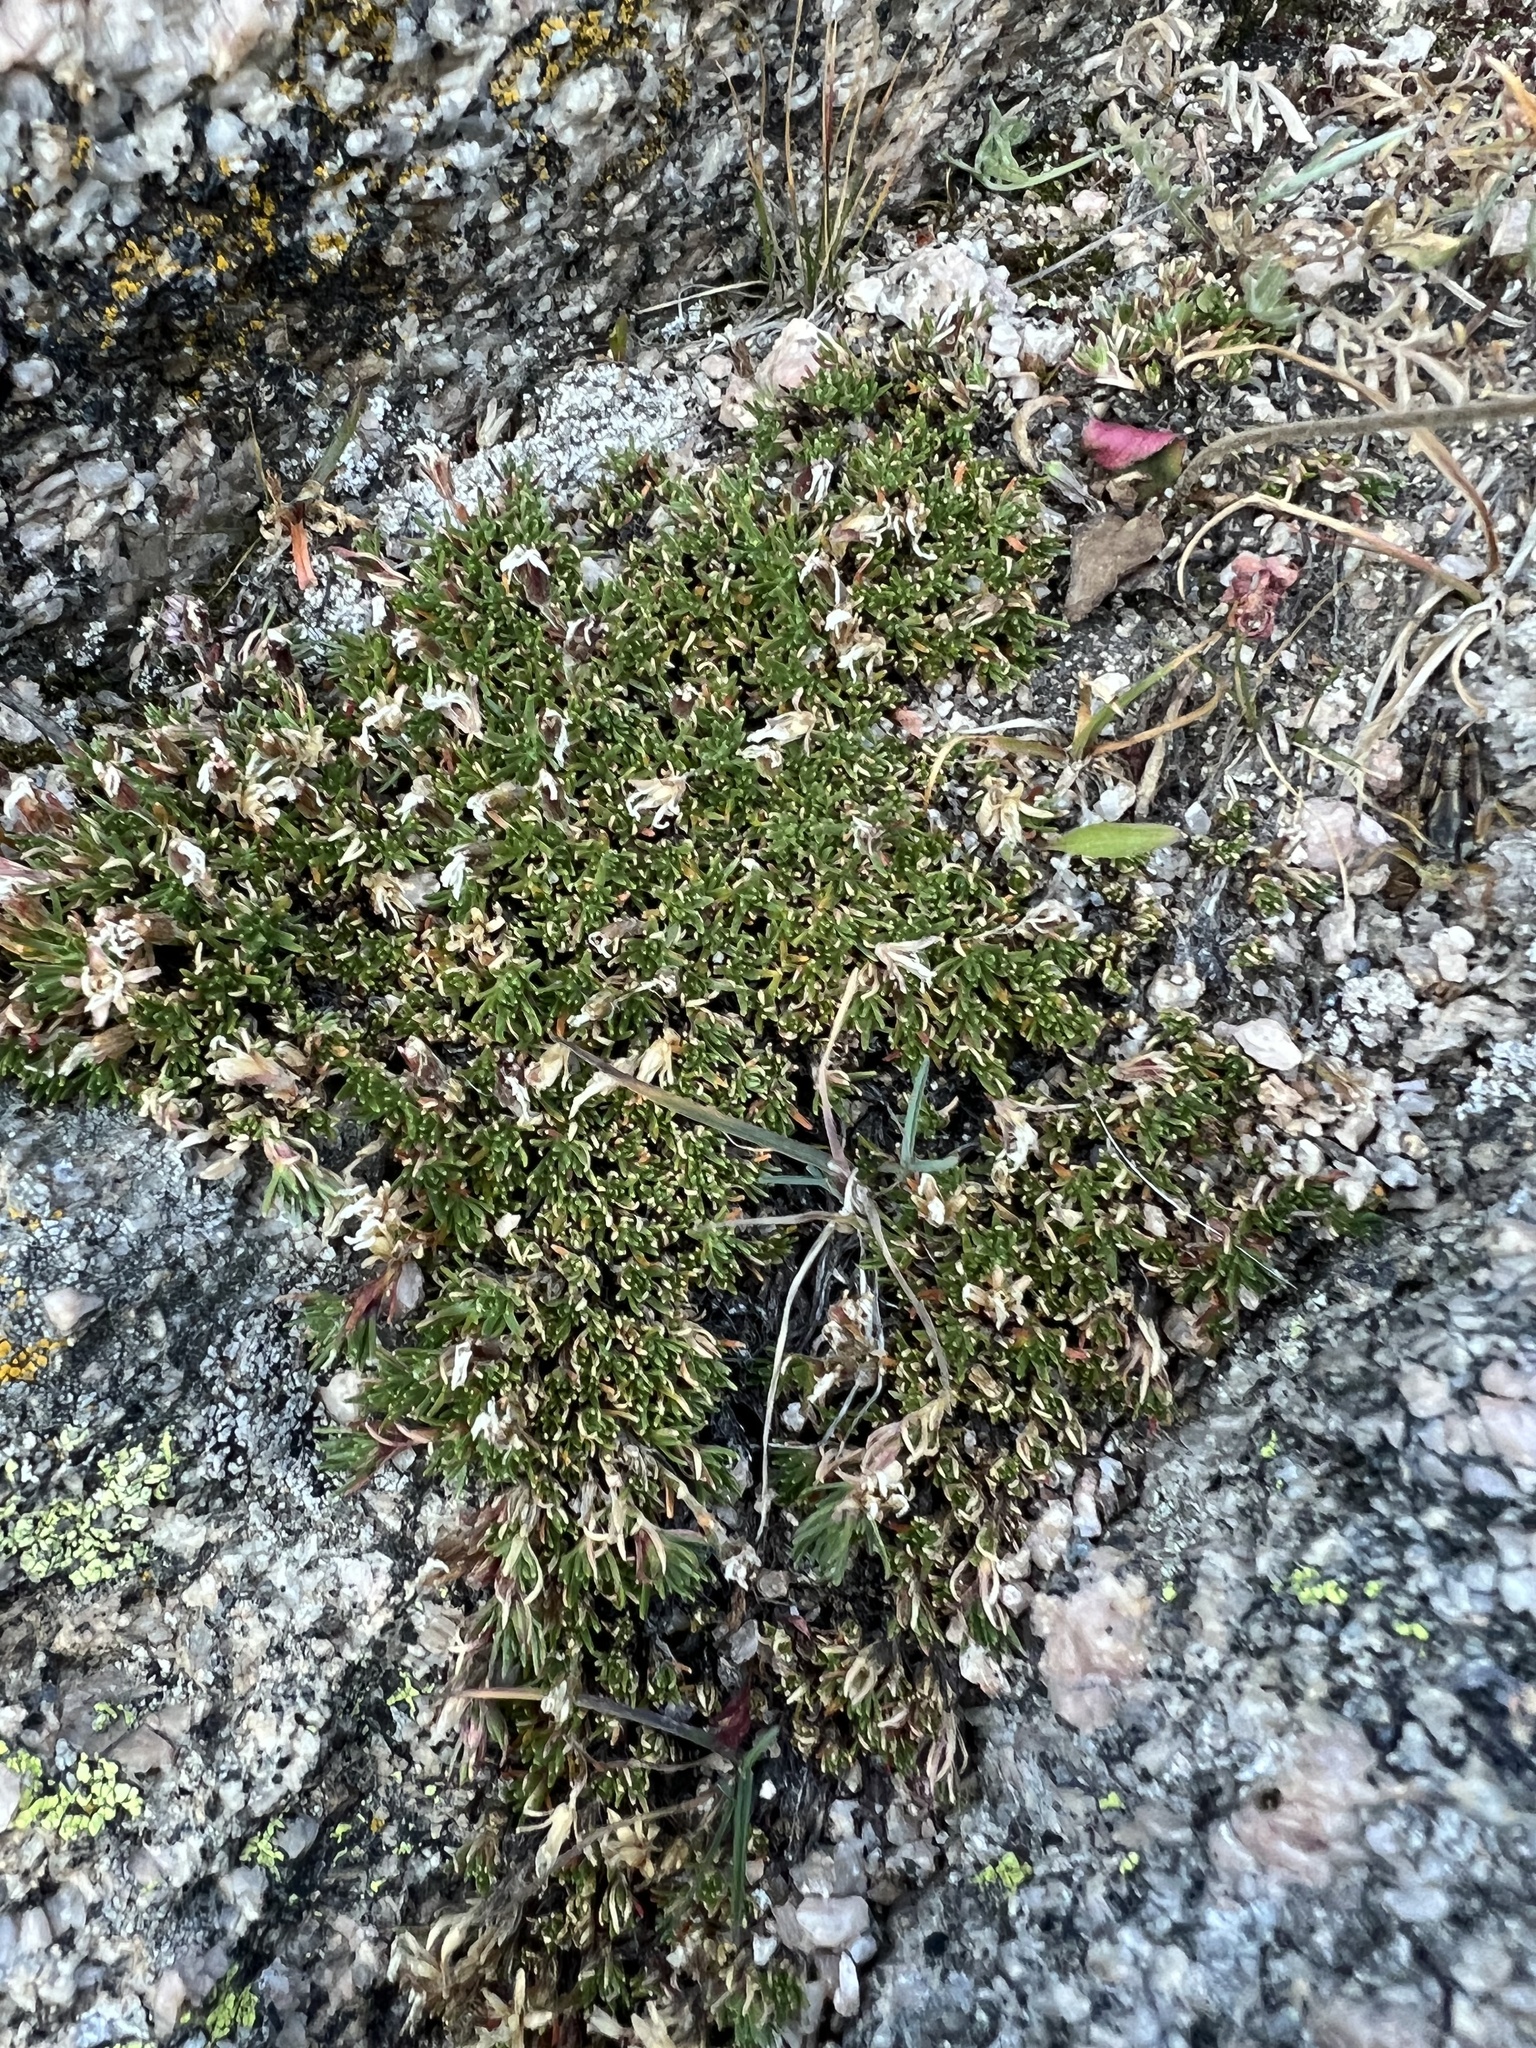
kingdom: Plantae
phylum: Tracheophyta
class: Magnoliopsida
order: Caryophyllales
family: Caryophyllaceae
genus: Cherleria
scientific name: Cherleria obtusiloba
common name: Alpine stitchwort
